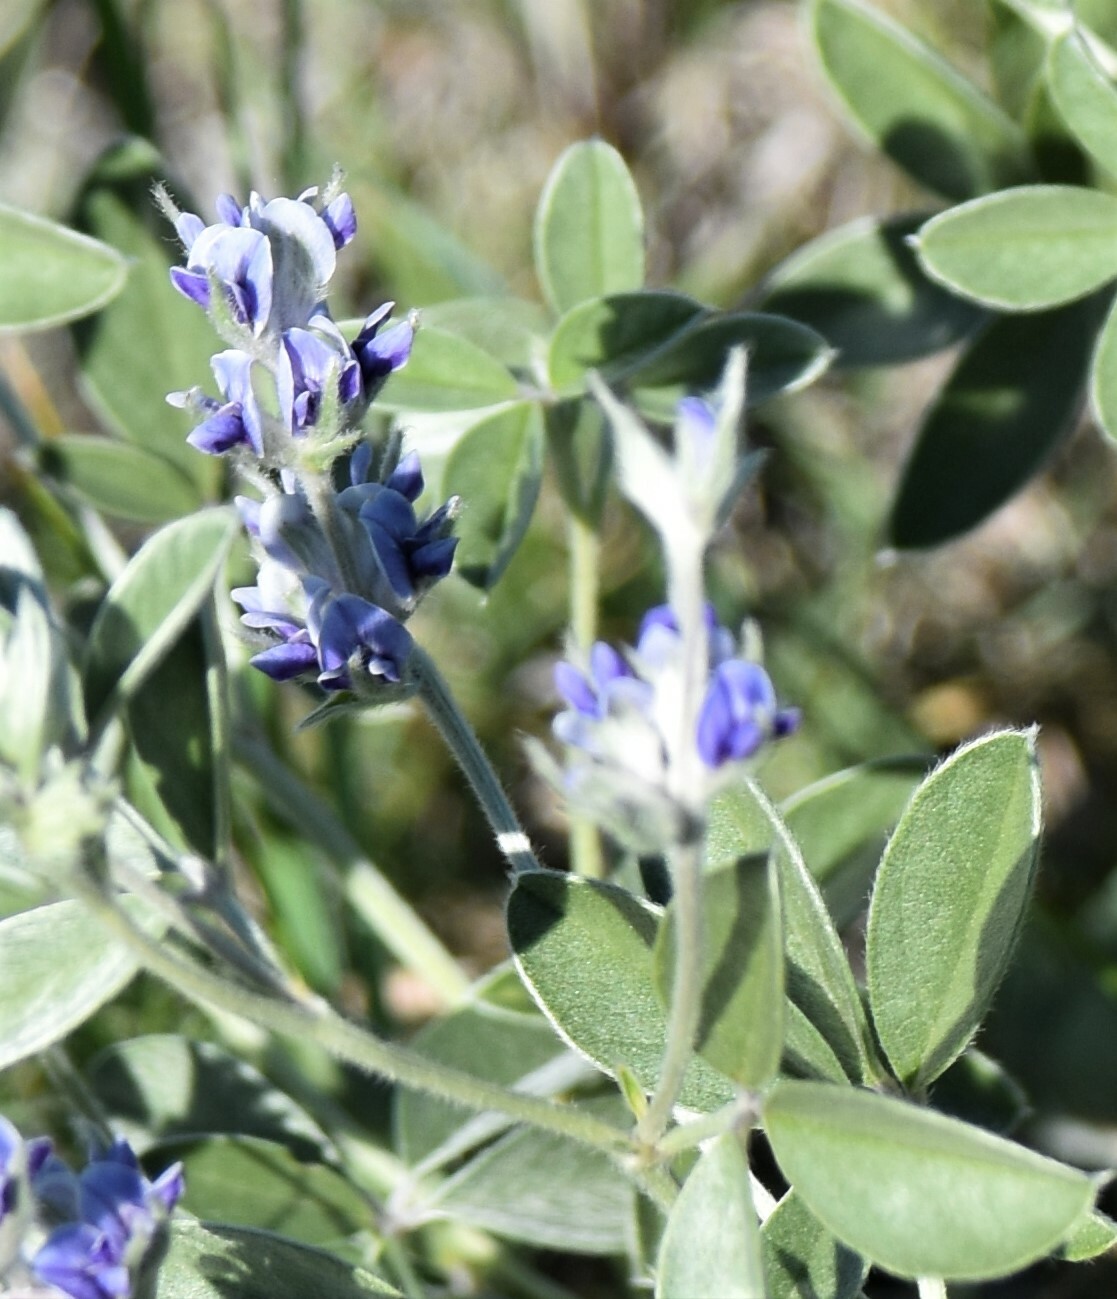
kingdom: Plantae
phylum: Tracheophyta
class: Magnoliopsida
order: Fabales
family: Fabaceae
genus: Pediomelum
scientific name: Pediomelum argophyllum
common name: Silver-leaved indian breadroot
